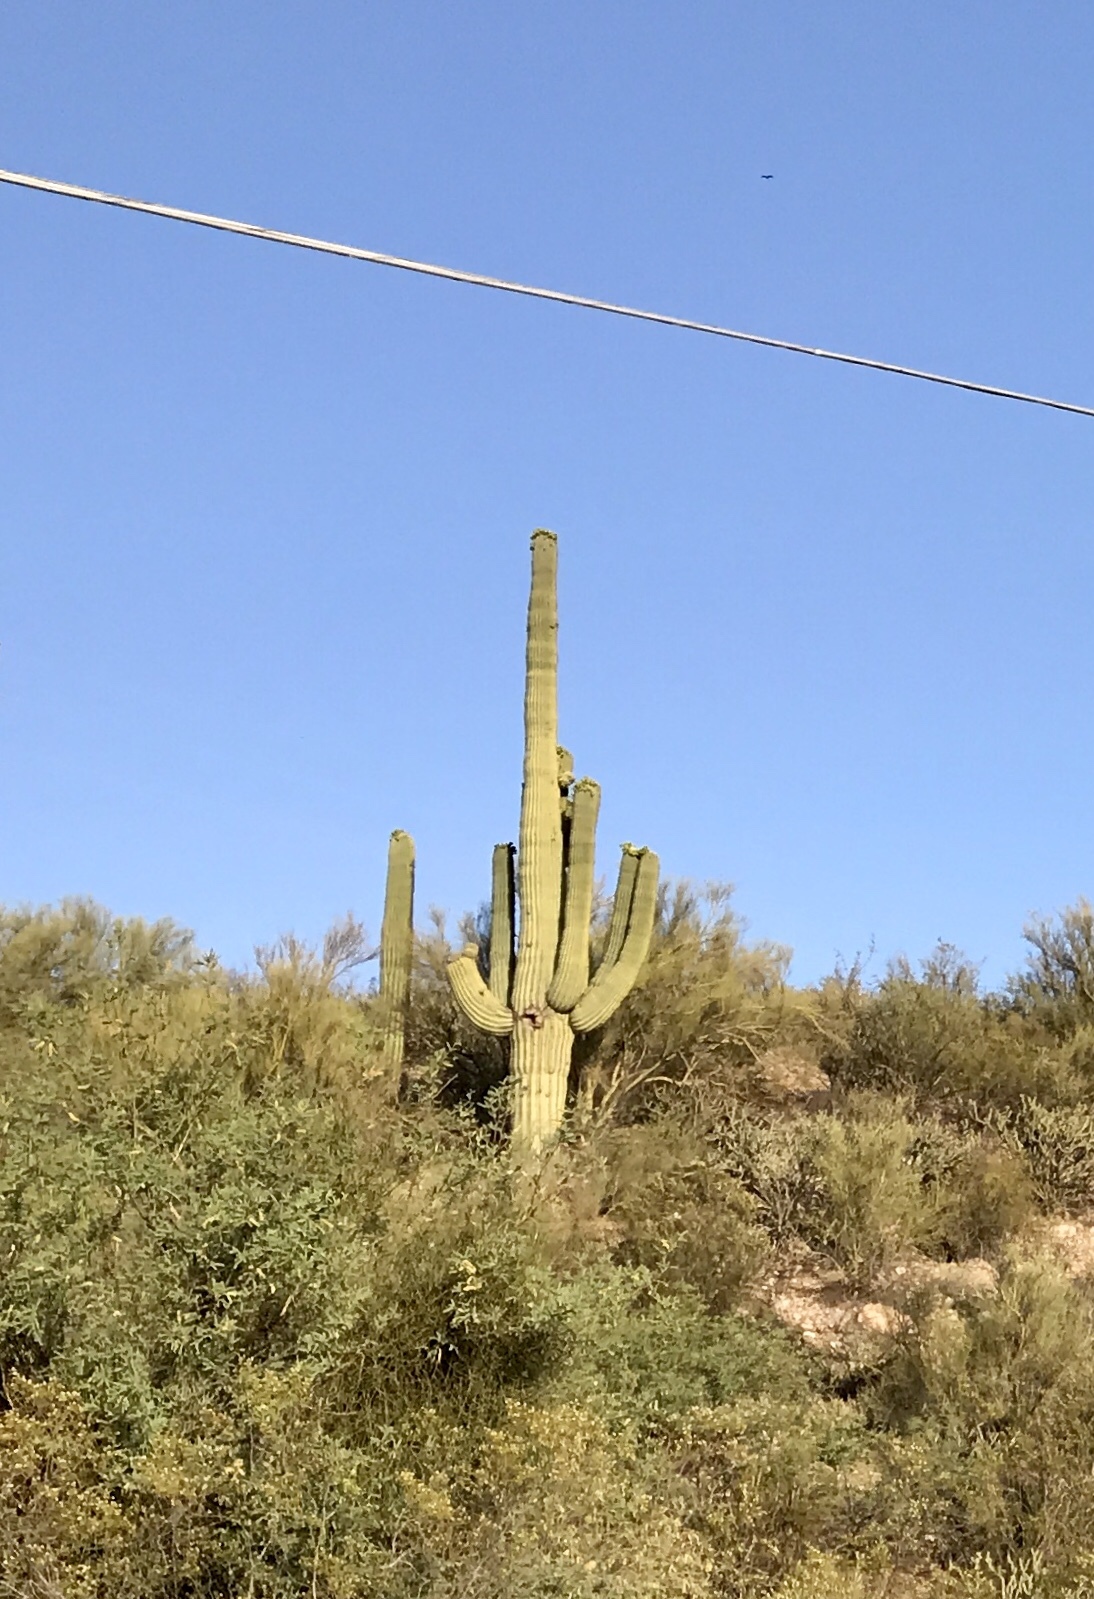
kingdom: Plantae
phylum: Tracheophyta
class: Magnoliopsida
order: Caryophyllales
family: Cactaceae
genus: Carnegiea
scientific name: Carnegiea gigantea
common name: Saguaro
